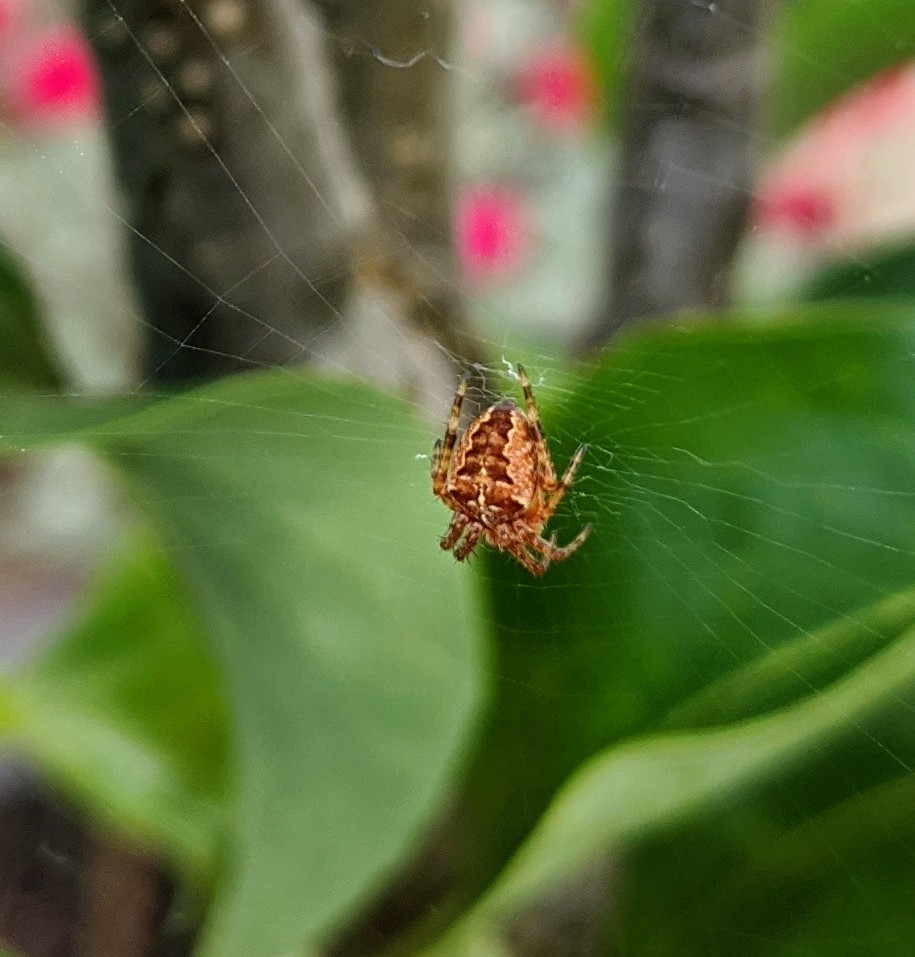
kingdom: Animalia
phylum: Arthropoda
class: Arachnida
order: Araneae
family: Araneidae
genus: Araneus
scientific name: Araneus diadematus
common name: Cross orbweaver
